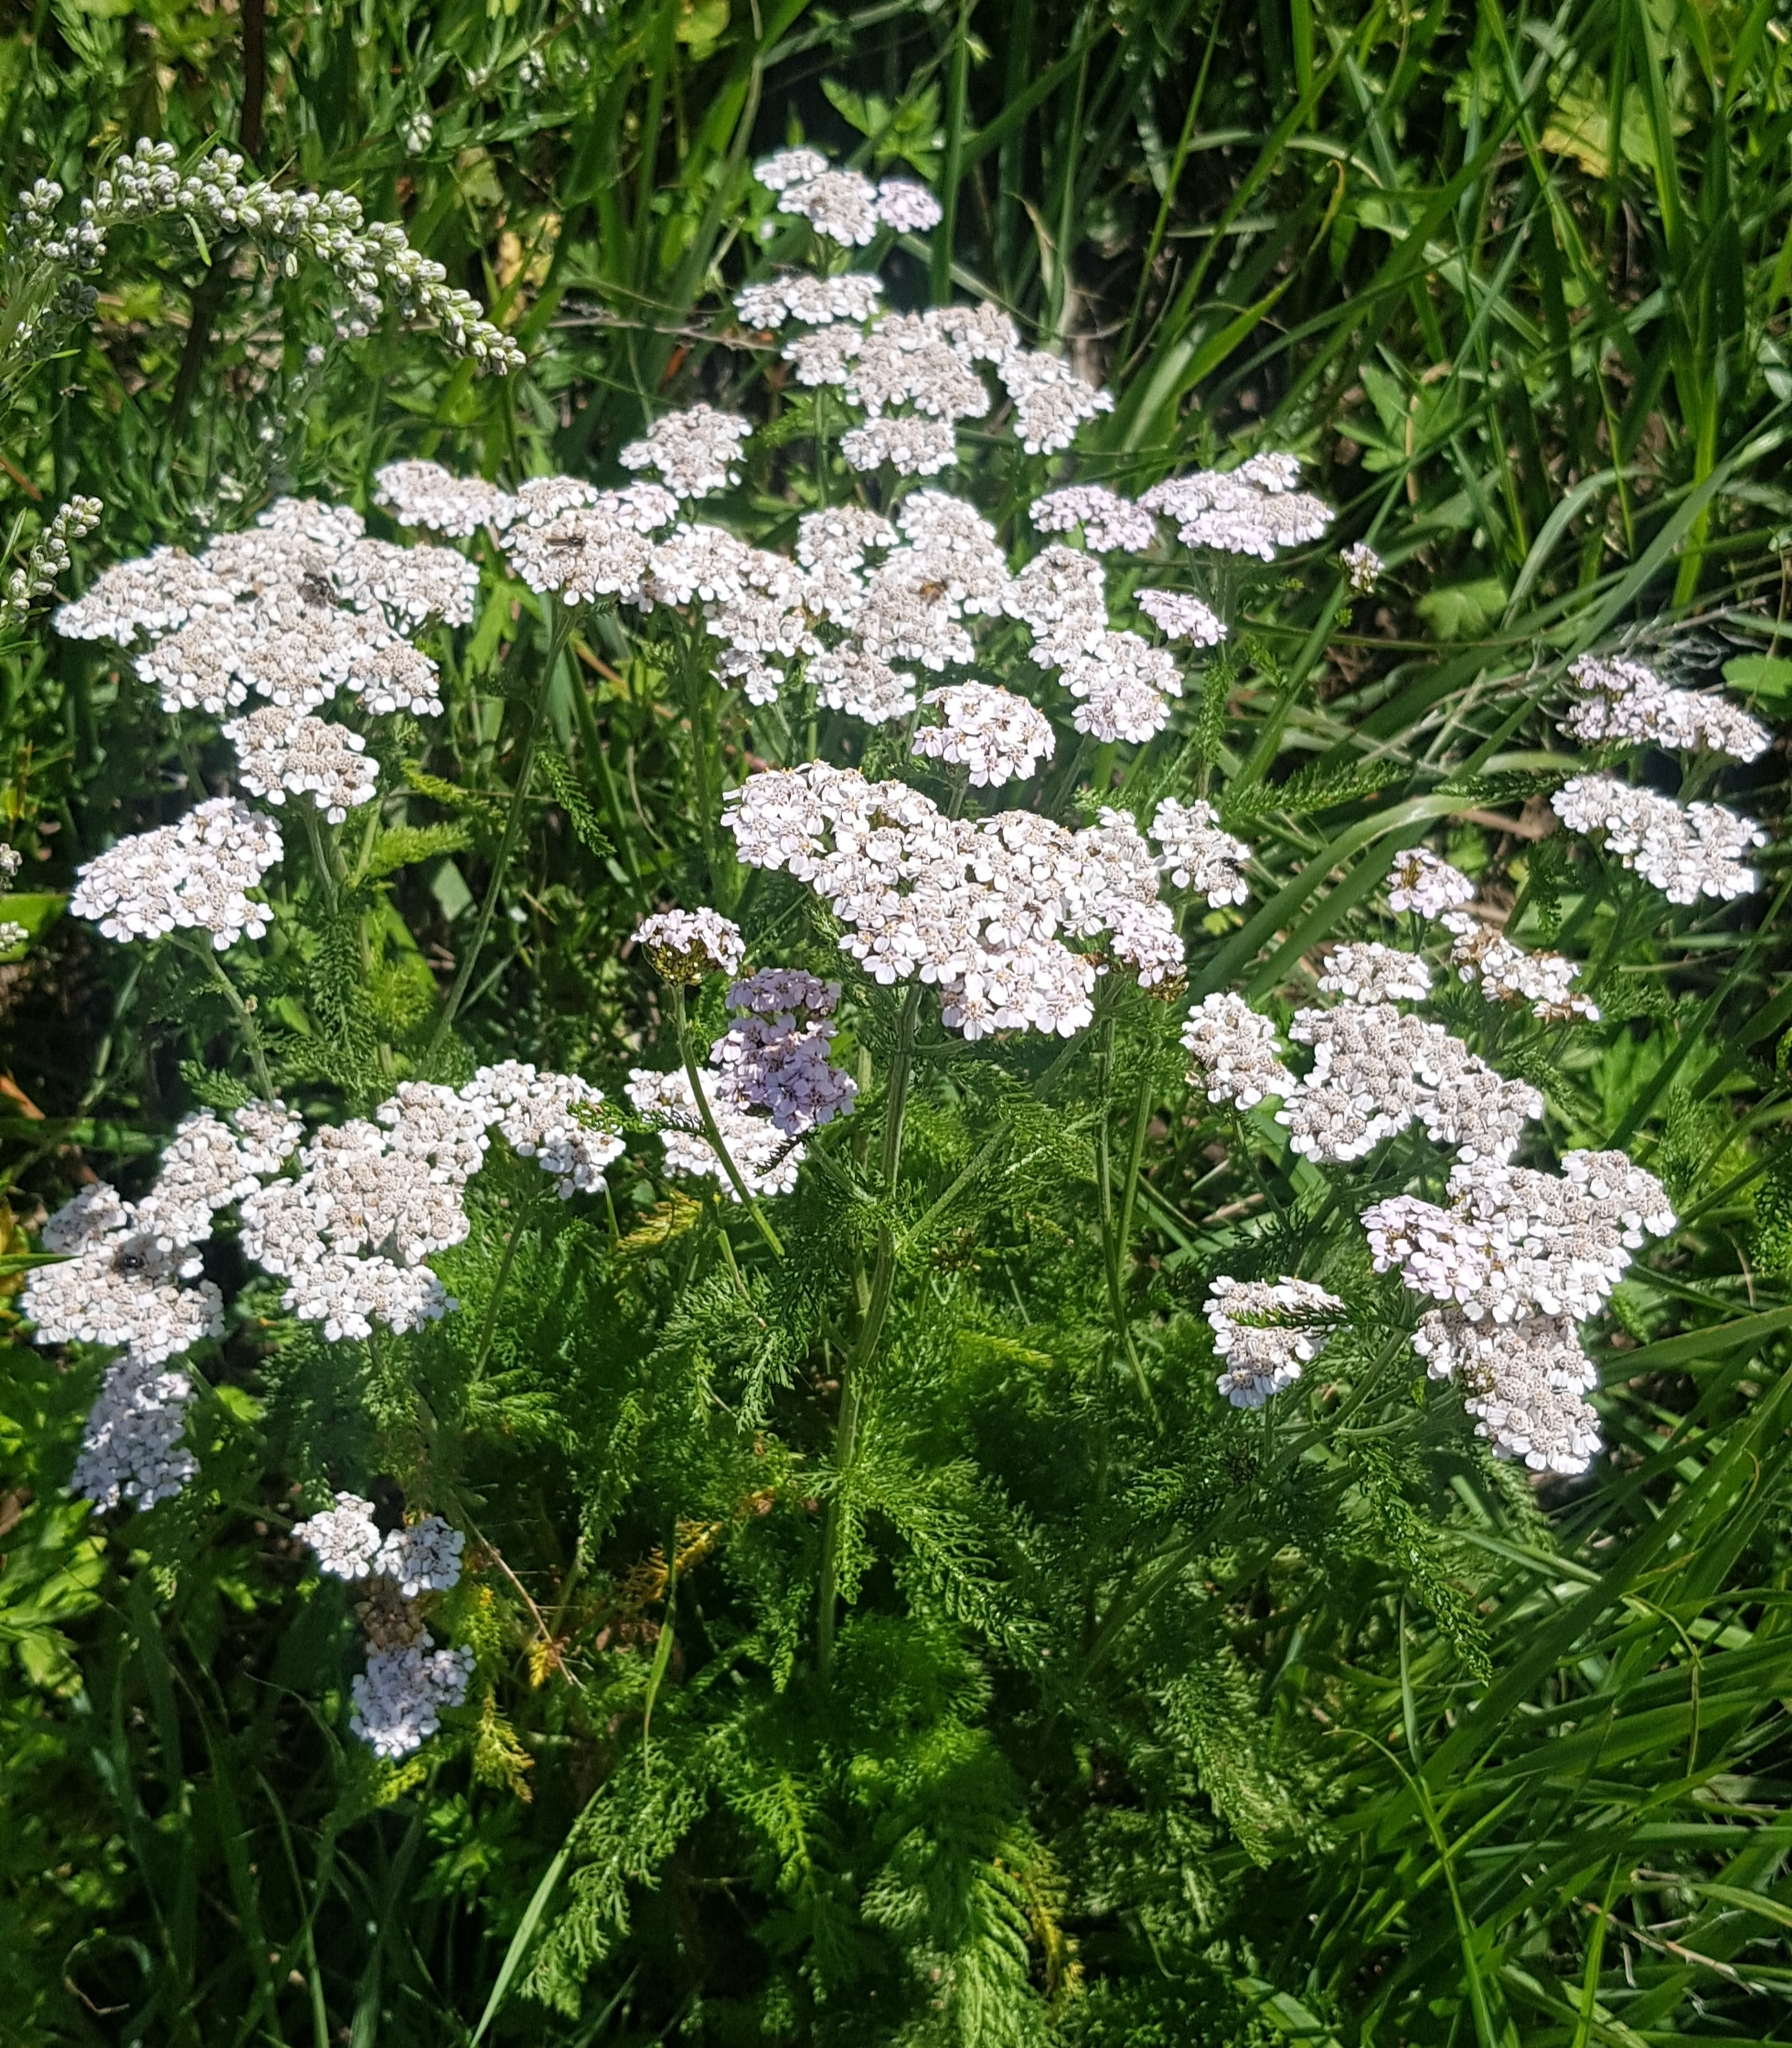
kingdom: Plantae
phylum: Tracheophyta
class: Magnoliopsida
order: Asterales
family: Asteraceae
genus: Achillea
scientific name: Achillea millefolium
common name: Yarrow
